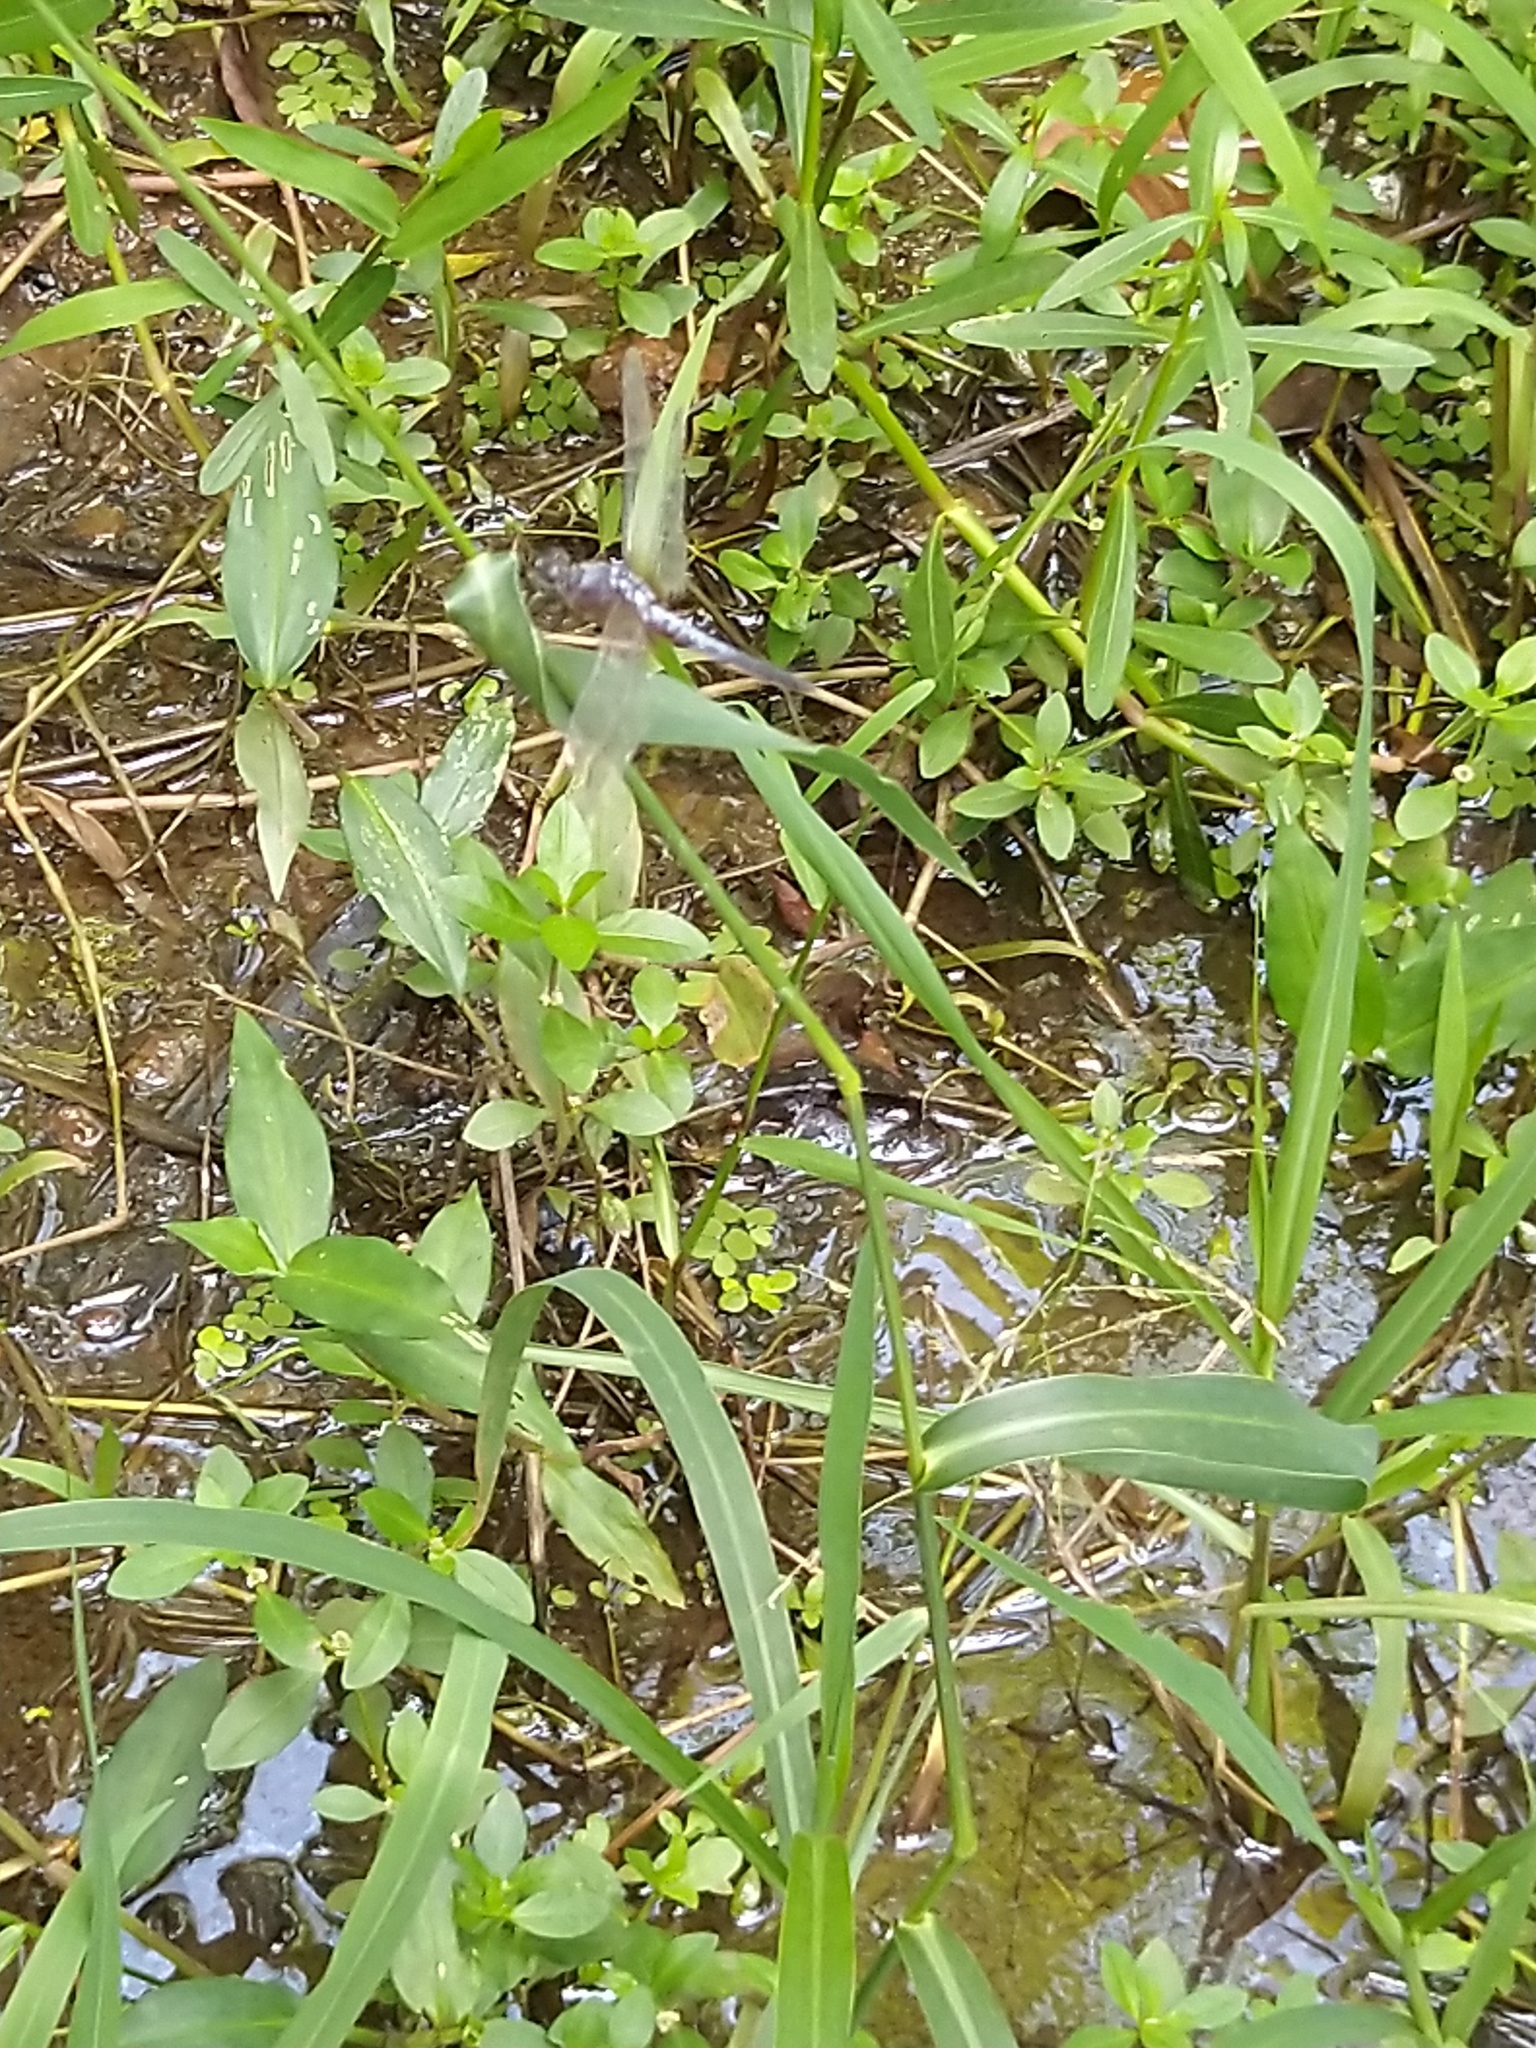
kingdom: Animalia
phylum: Arthropoda
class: Insecta
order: Odonata
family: Libellulidae
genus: Brachydiplax
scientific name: Brachydiplax chalybea
